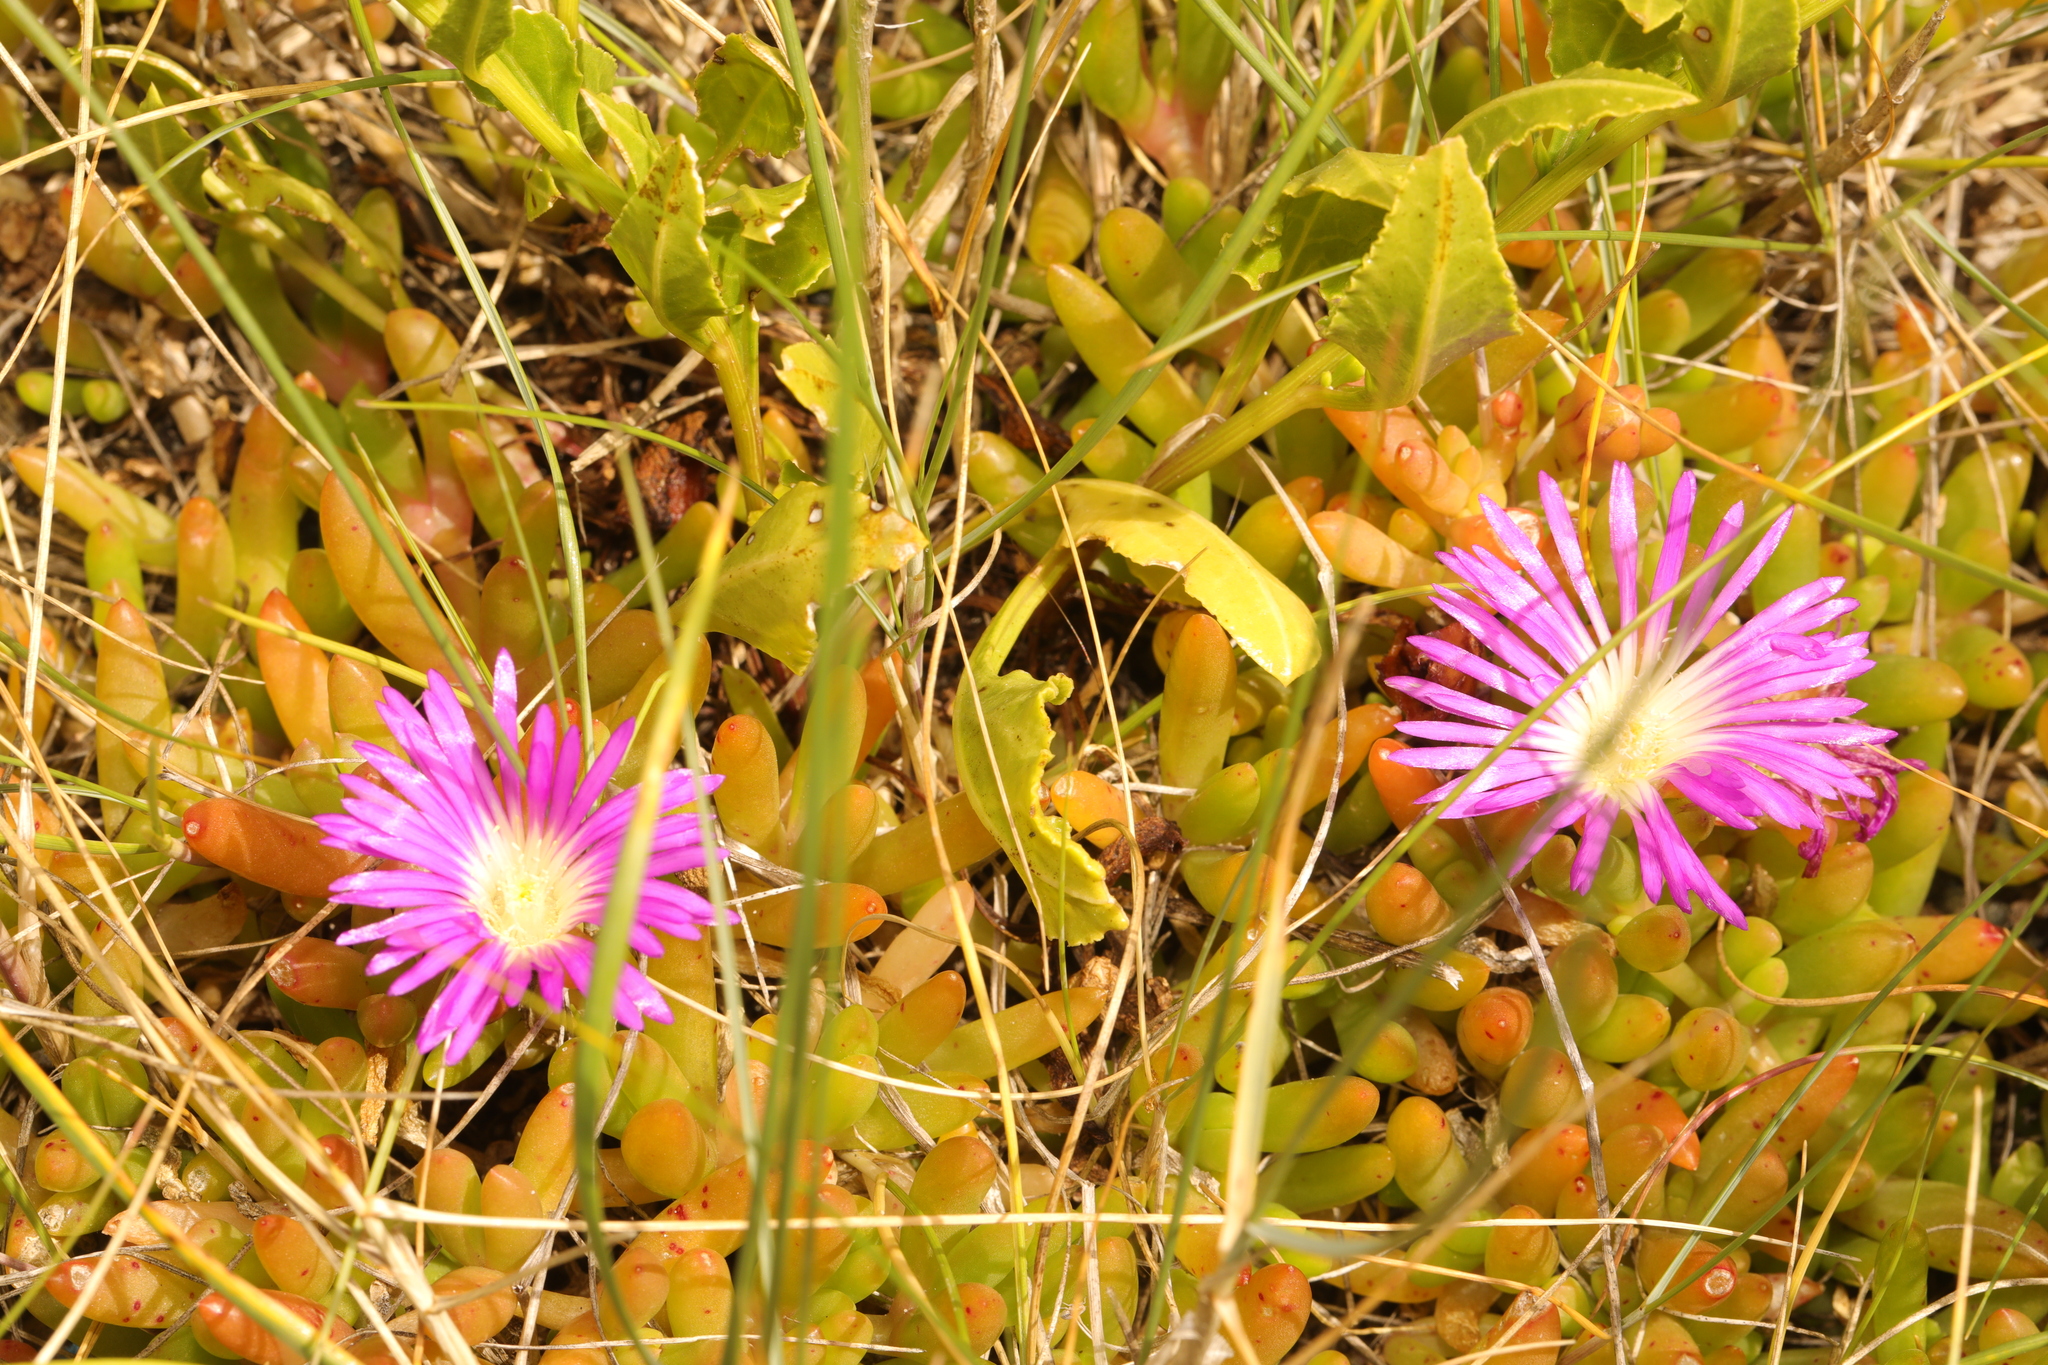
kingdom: Plantae
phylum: Tracheophyta
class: Magnoliopsida
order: Caryophyllales
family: Aizoaceae
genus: Disphyma
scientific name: Disphyma crassifolium
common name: Purple dewplant
